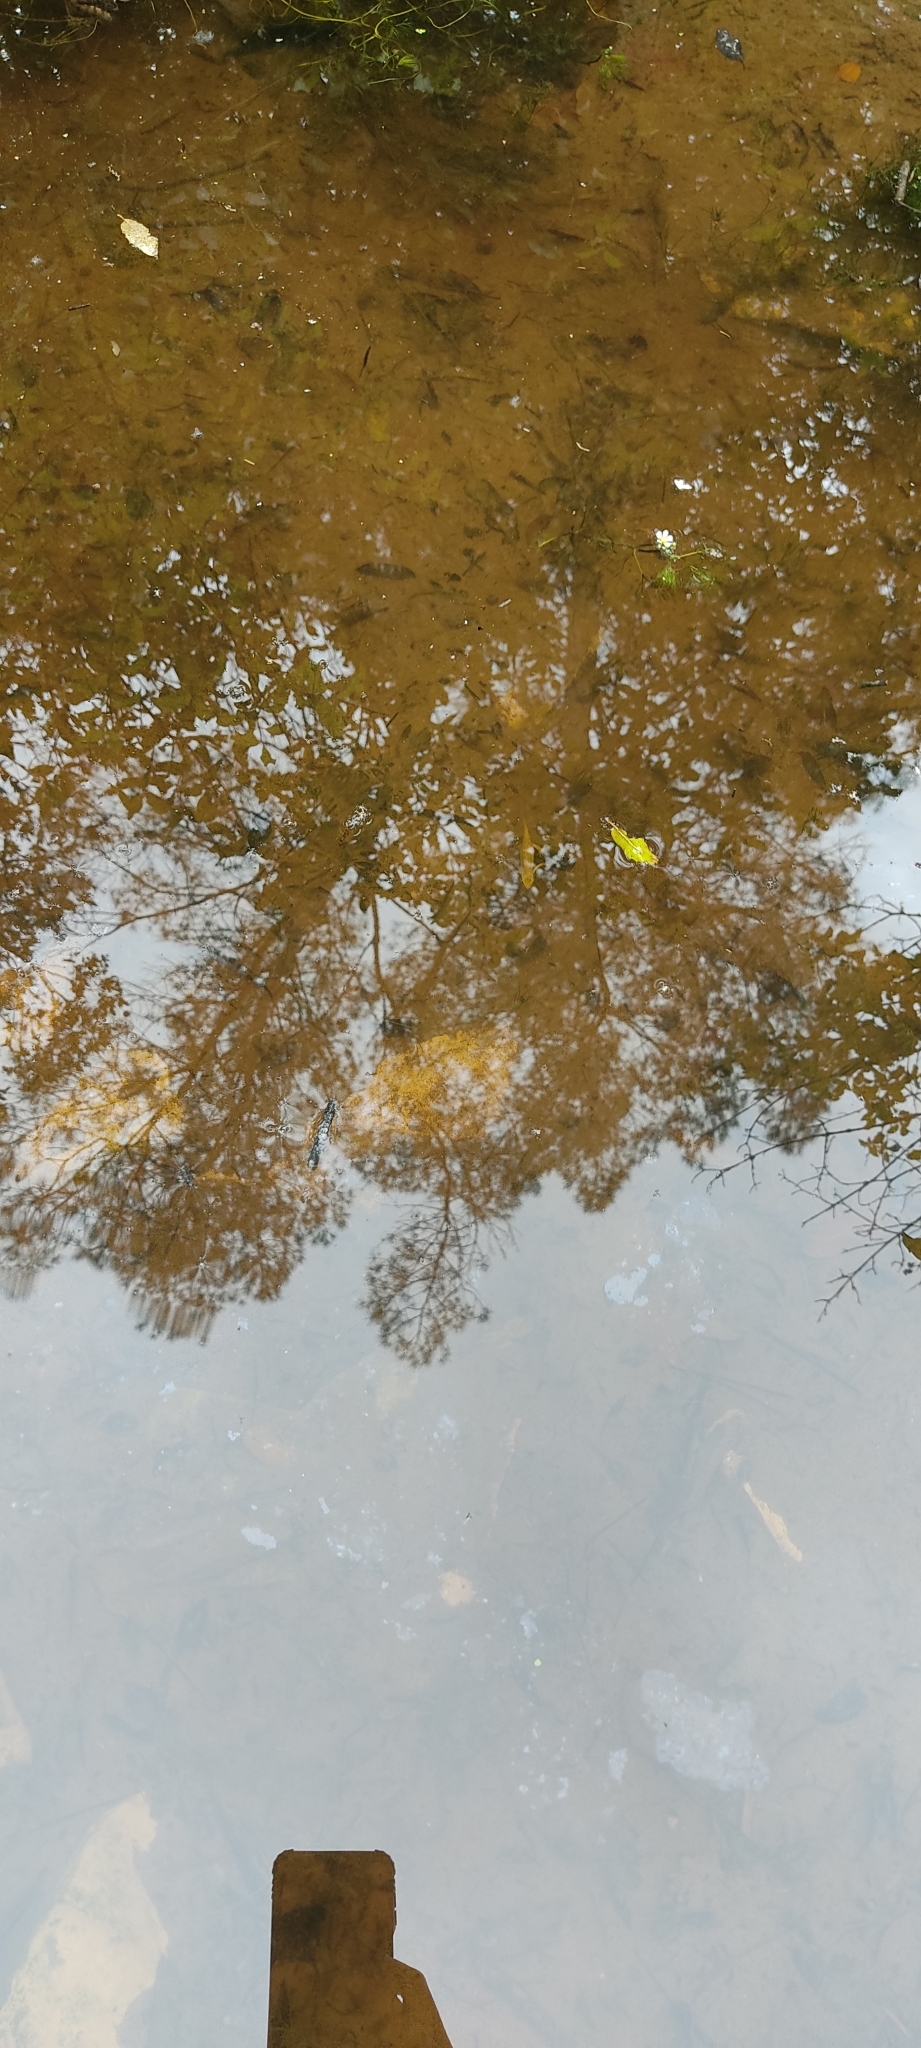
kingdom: Animalia
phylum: Chordata
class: Amphibia
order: Caudata
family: Salamandridae
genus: Lissotriton
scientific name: Lissotriton helveticus
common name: Palmate newt
